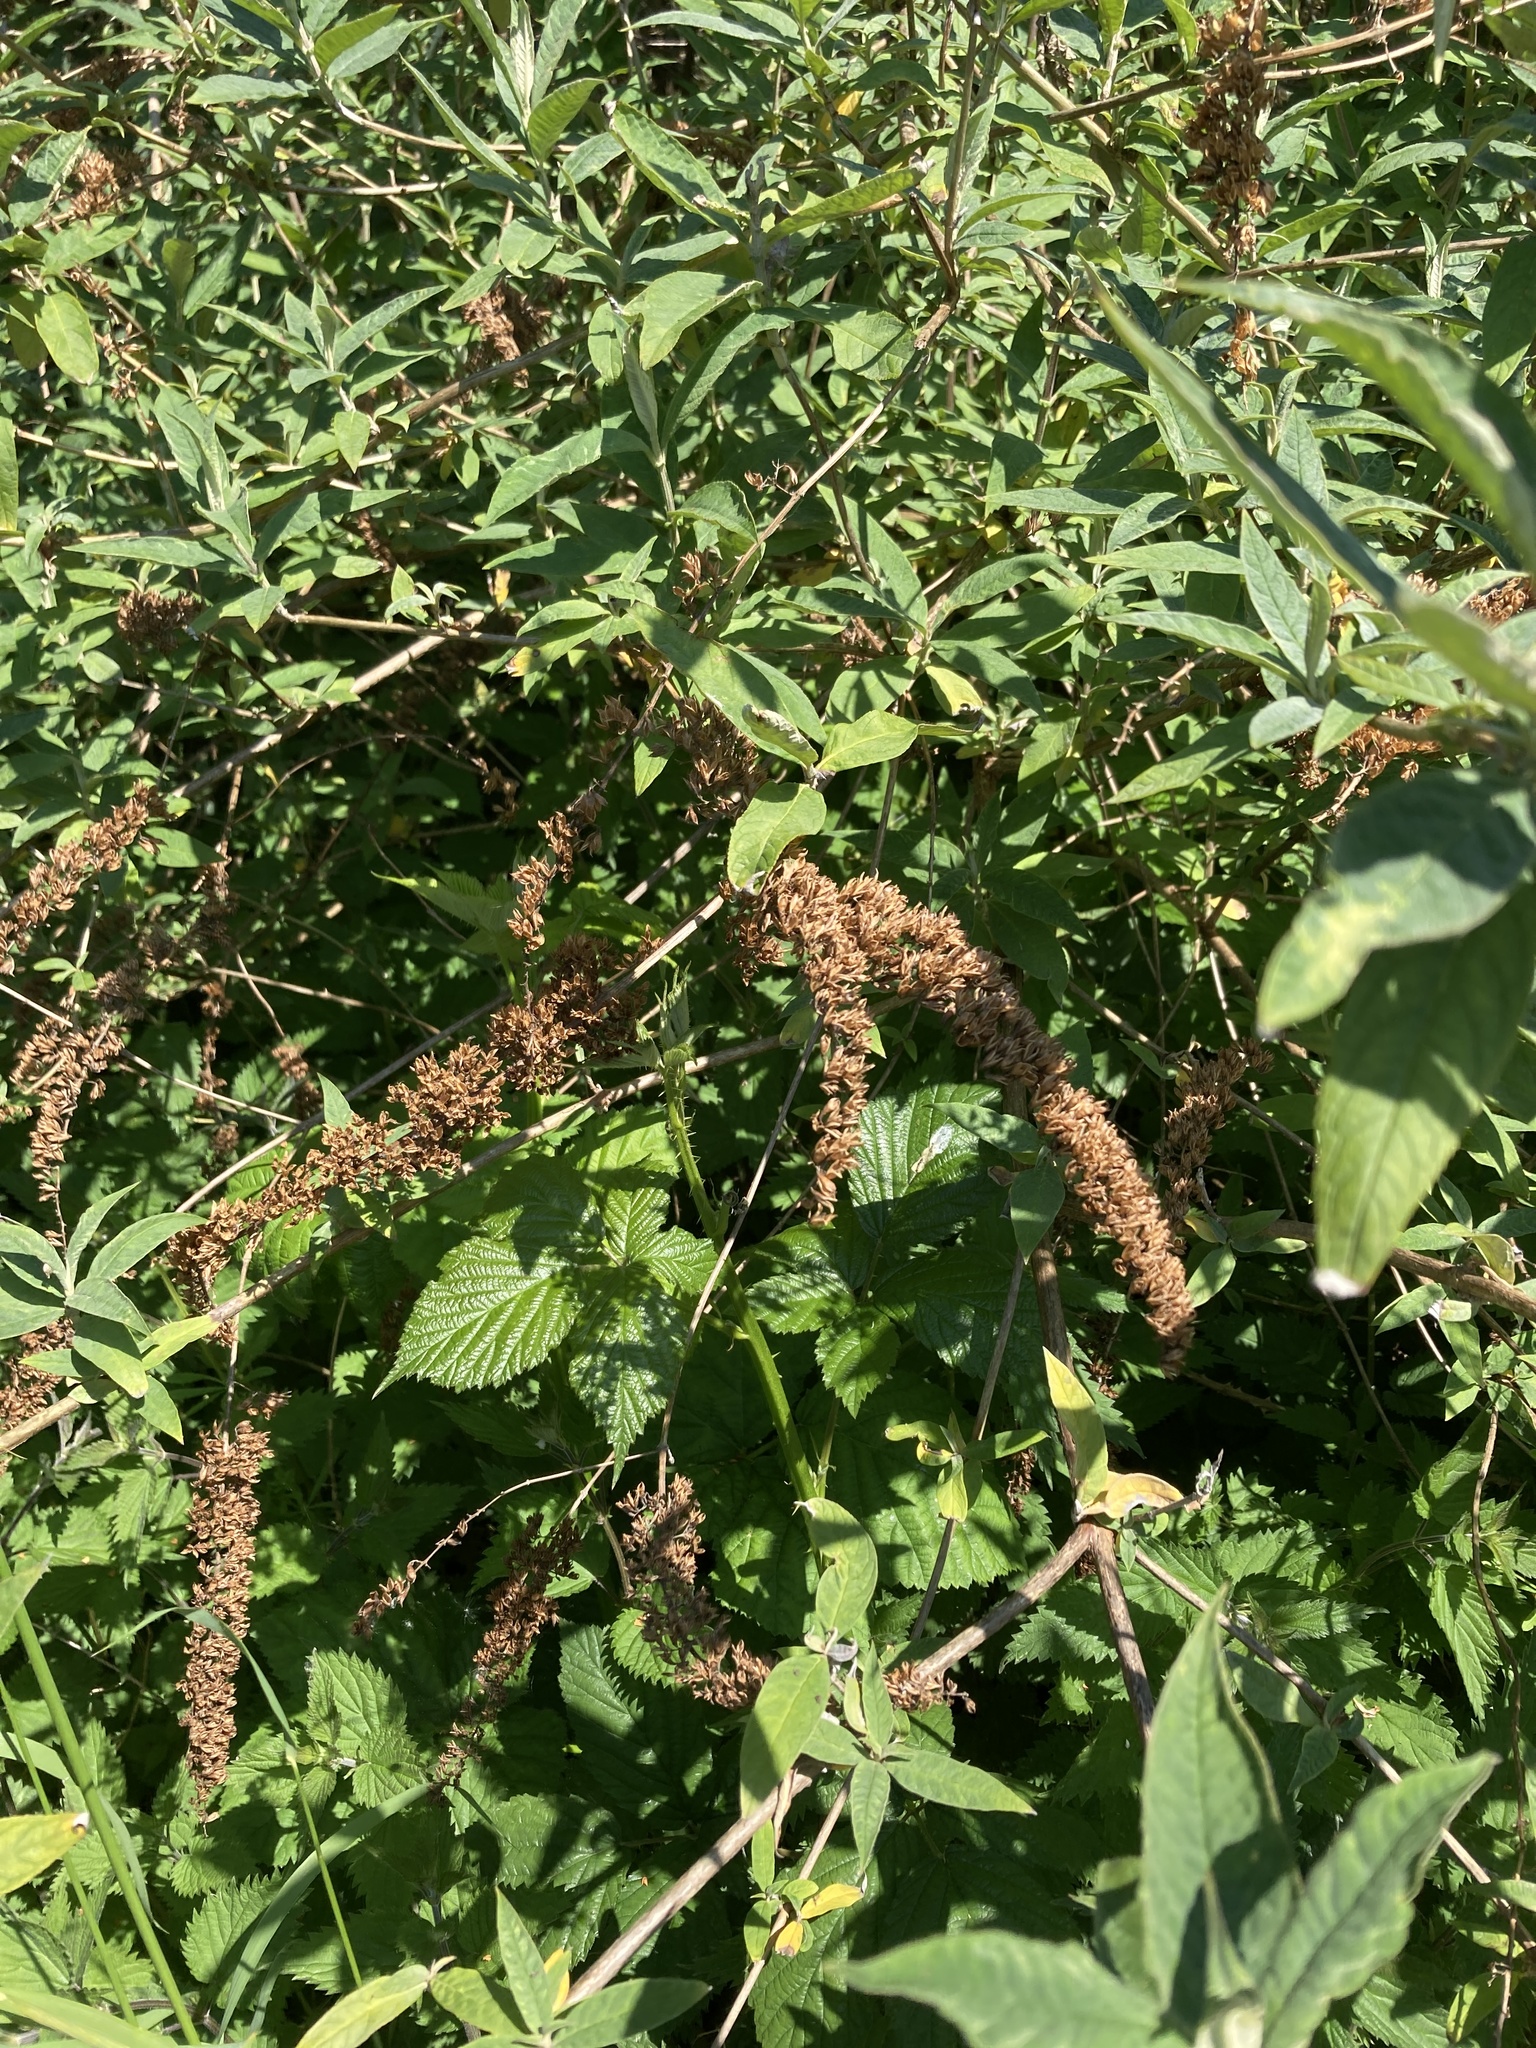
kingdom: Plantae
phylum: Tracheophyta
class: Magnoliopsida
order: Lamiales
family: Scrophulariaceae
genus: Buddleja
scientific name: Buddleja davidii
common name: Butterfly-bush
